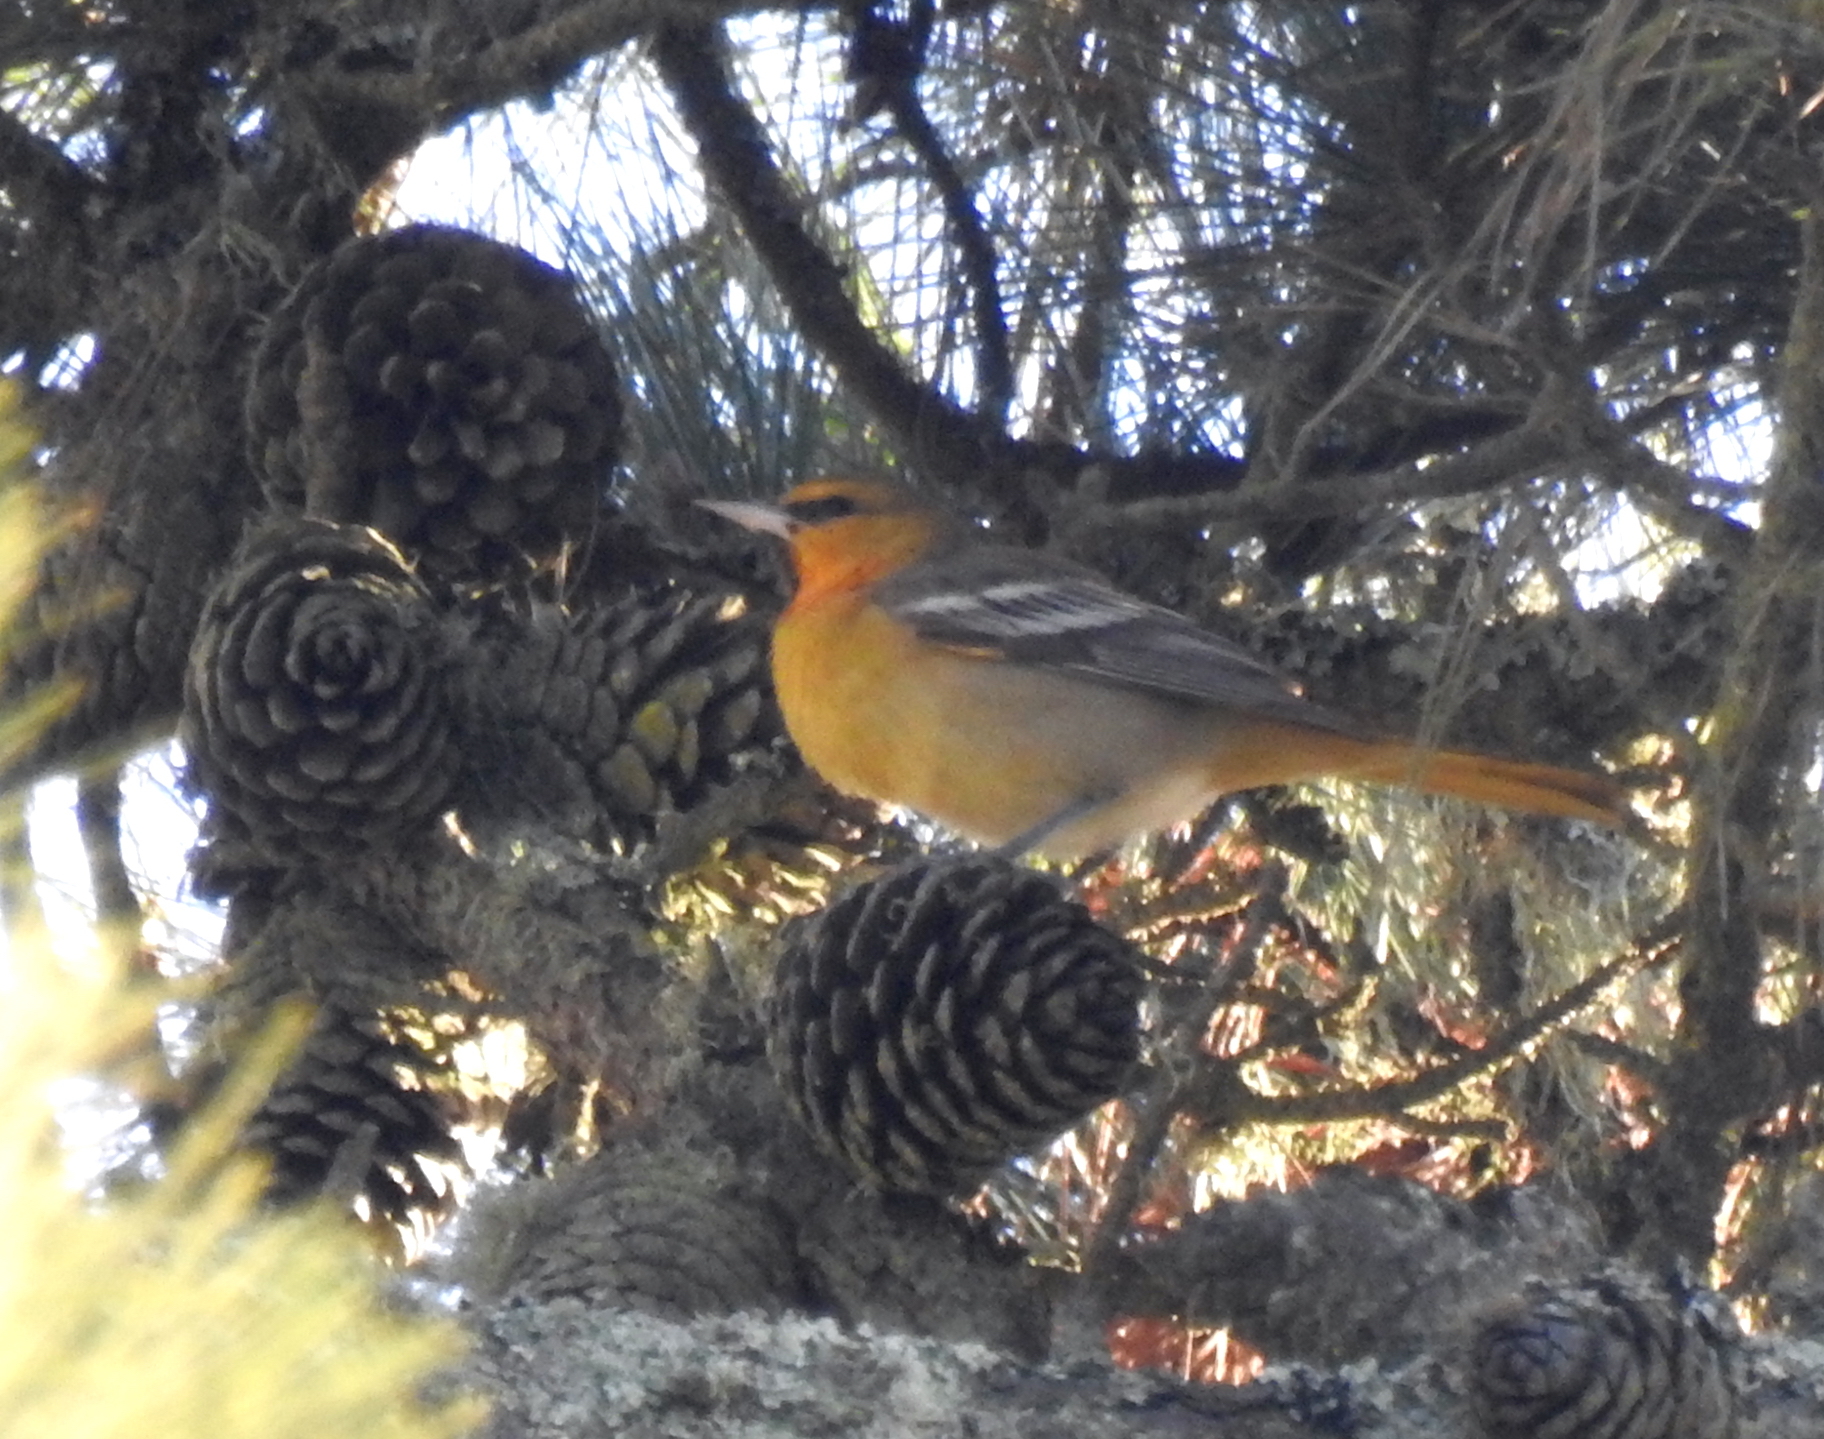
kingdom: Animalia
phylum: Chordata
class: Aves
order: Passeriformes
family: Icteridae
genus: Icterus
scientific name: Icterus bullockii
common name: Bullock's oriole
